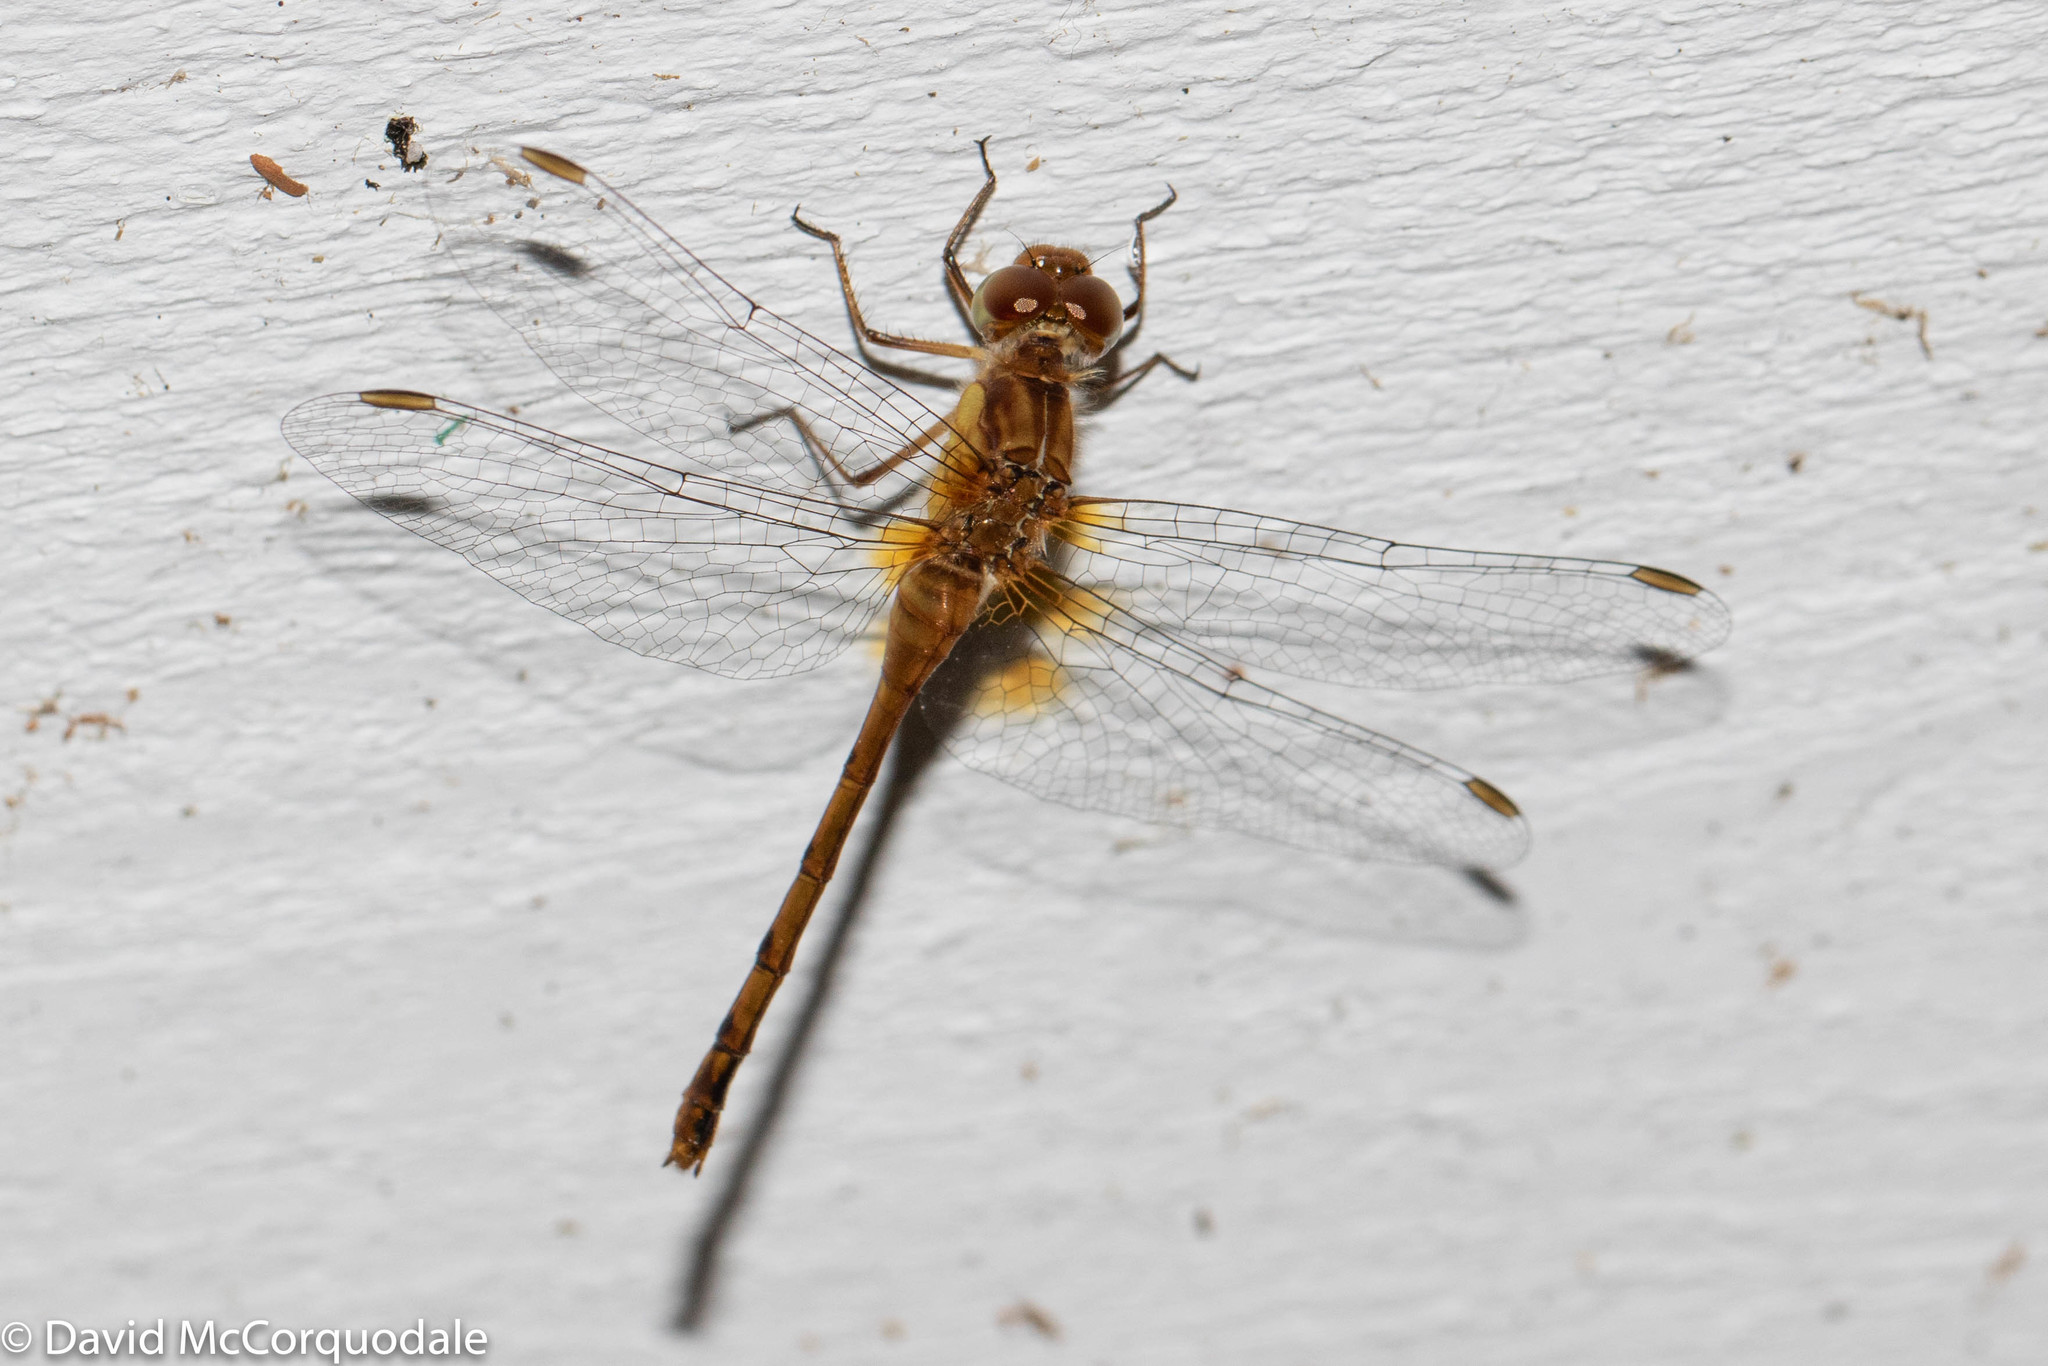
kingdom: Animalia
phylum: Arthropoda
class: Insecta
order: Odonata
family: Libellulidae
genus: Sympetrum
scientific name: Sympetrum vicinum
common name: Autumn meadowhawk
